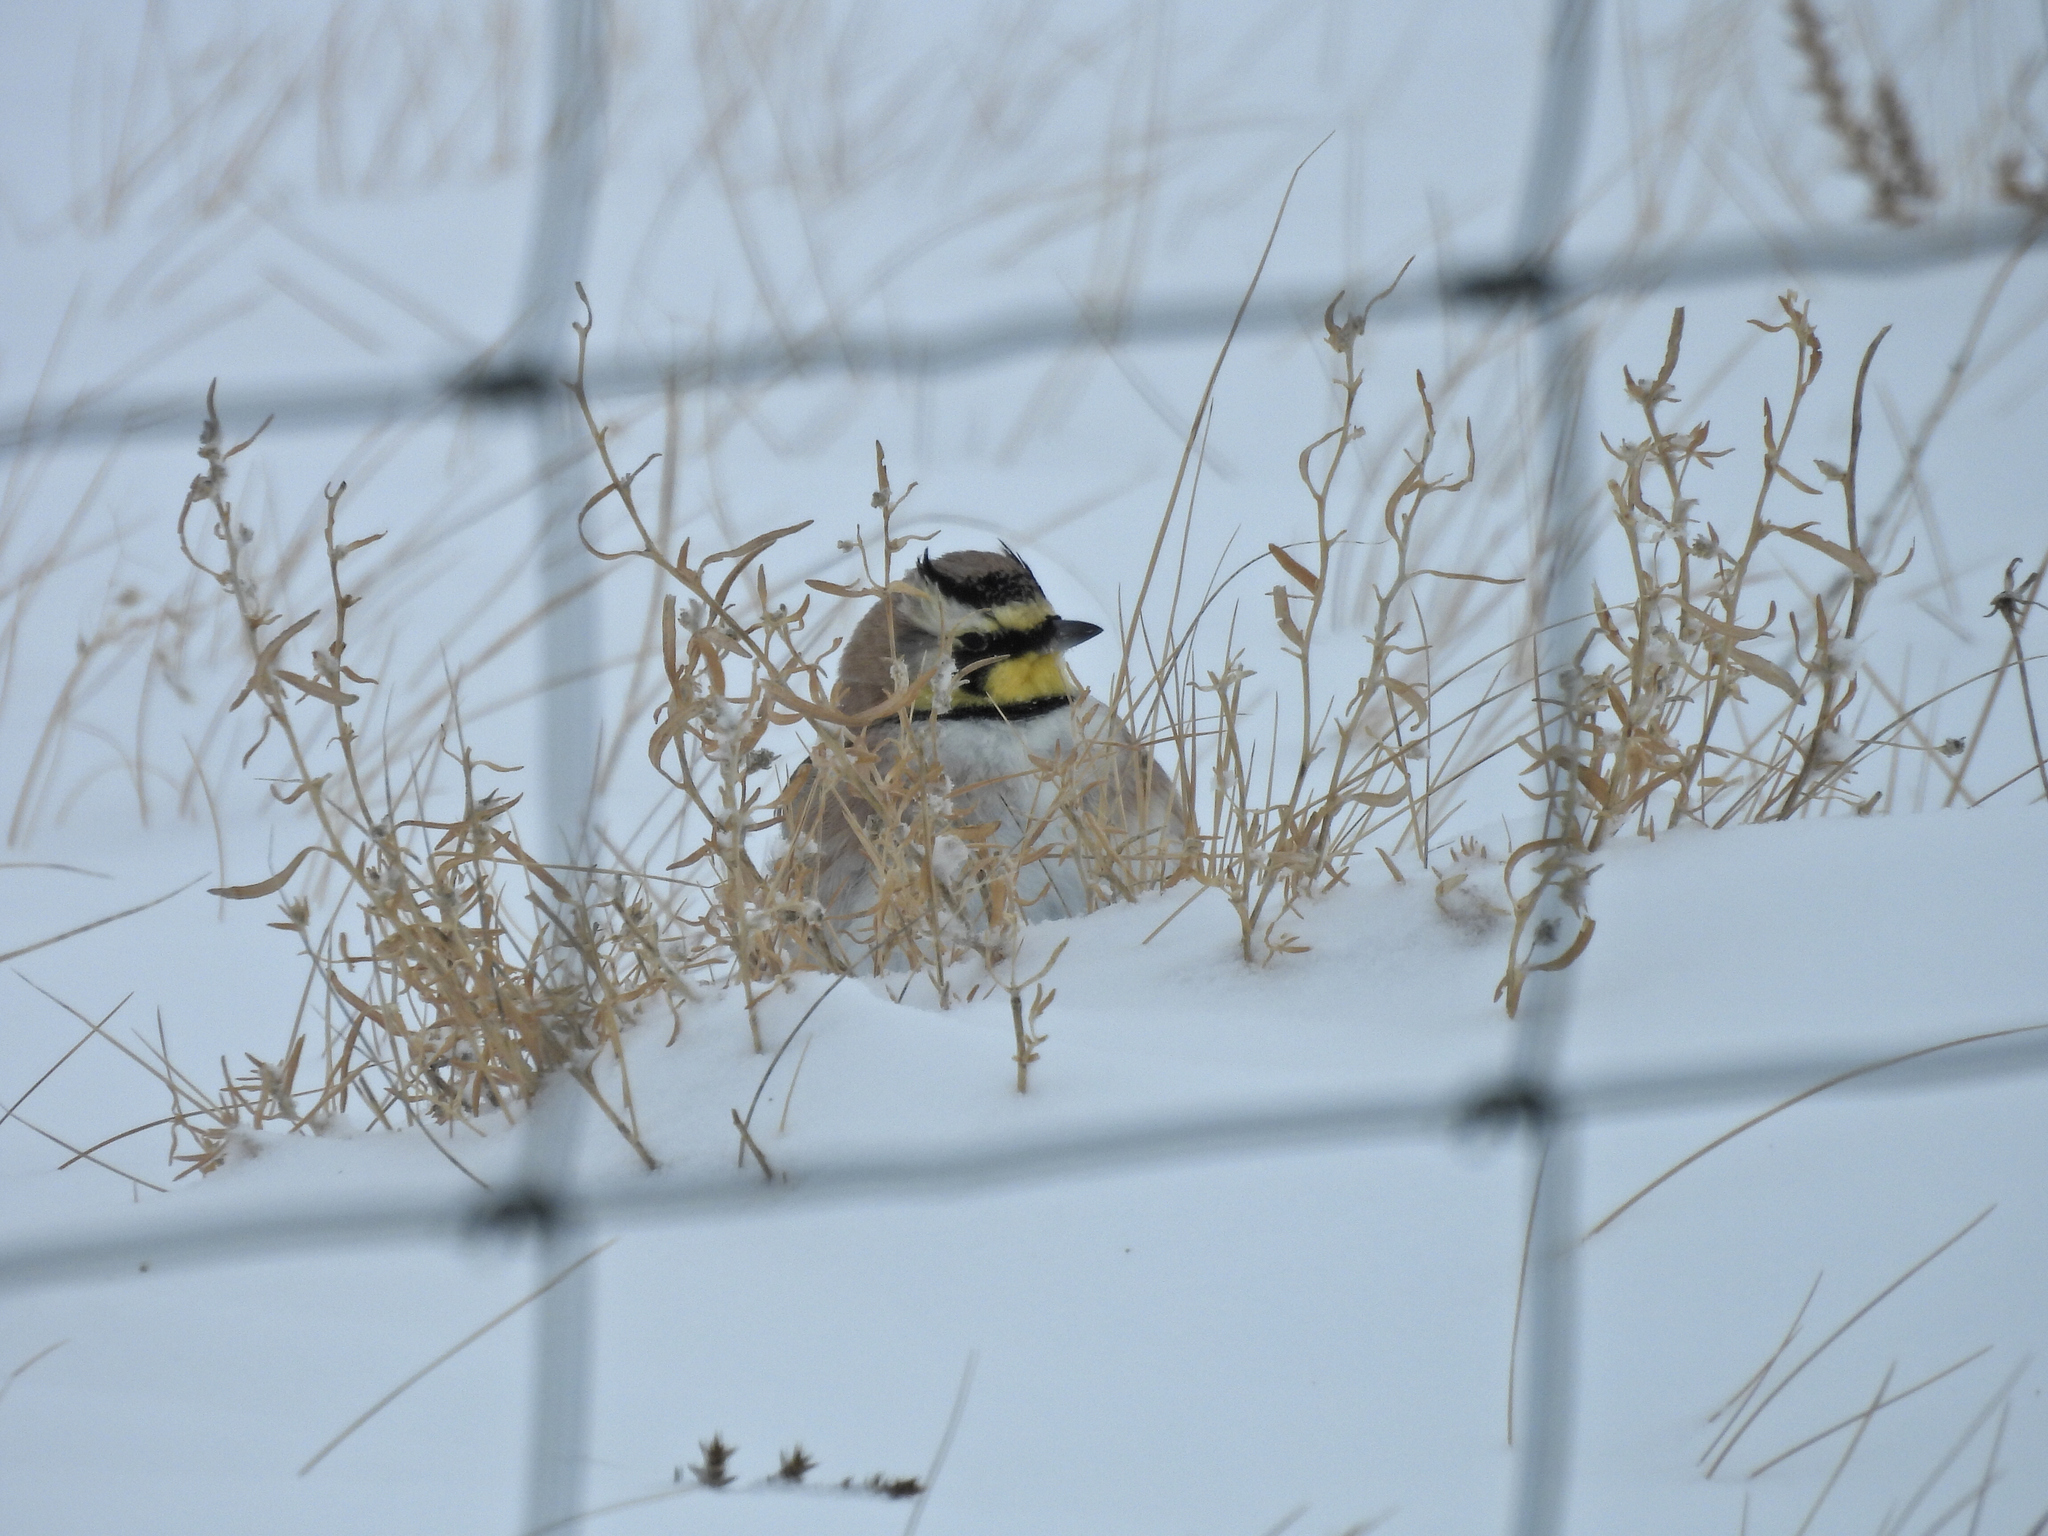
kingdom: Animalia
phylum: Chordata
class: Aves
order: Passeriformes
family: Alaudidae
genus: Eremophila
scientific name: Eremophila alpestris
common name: Horned lark
